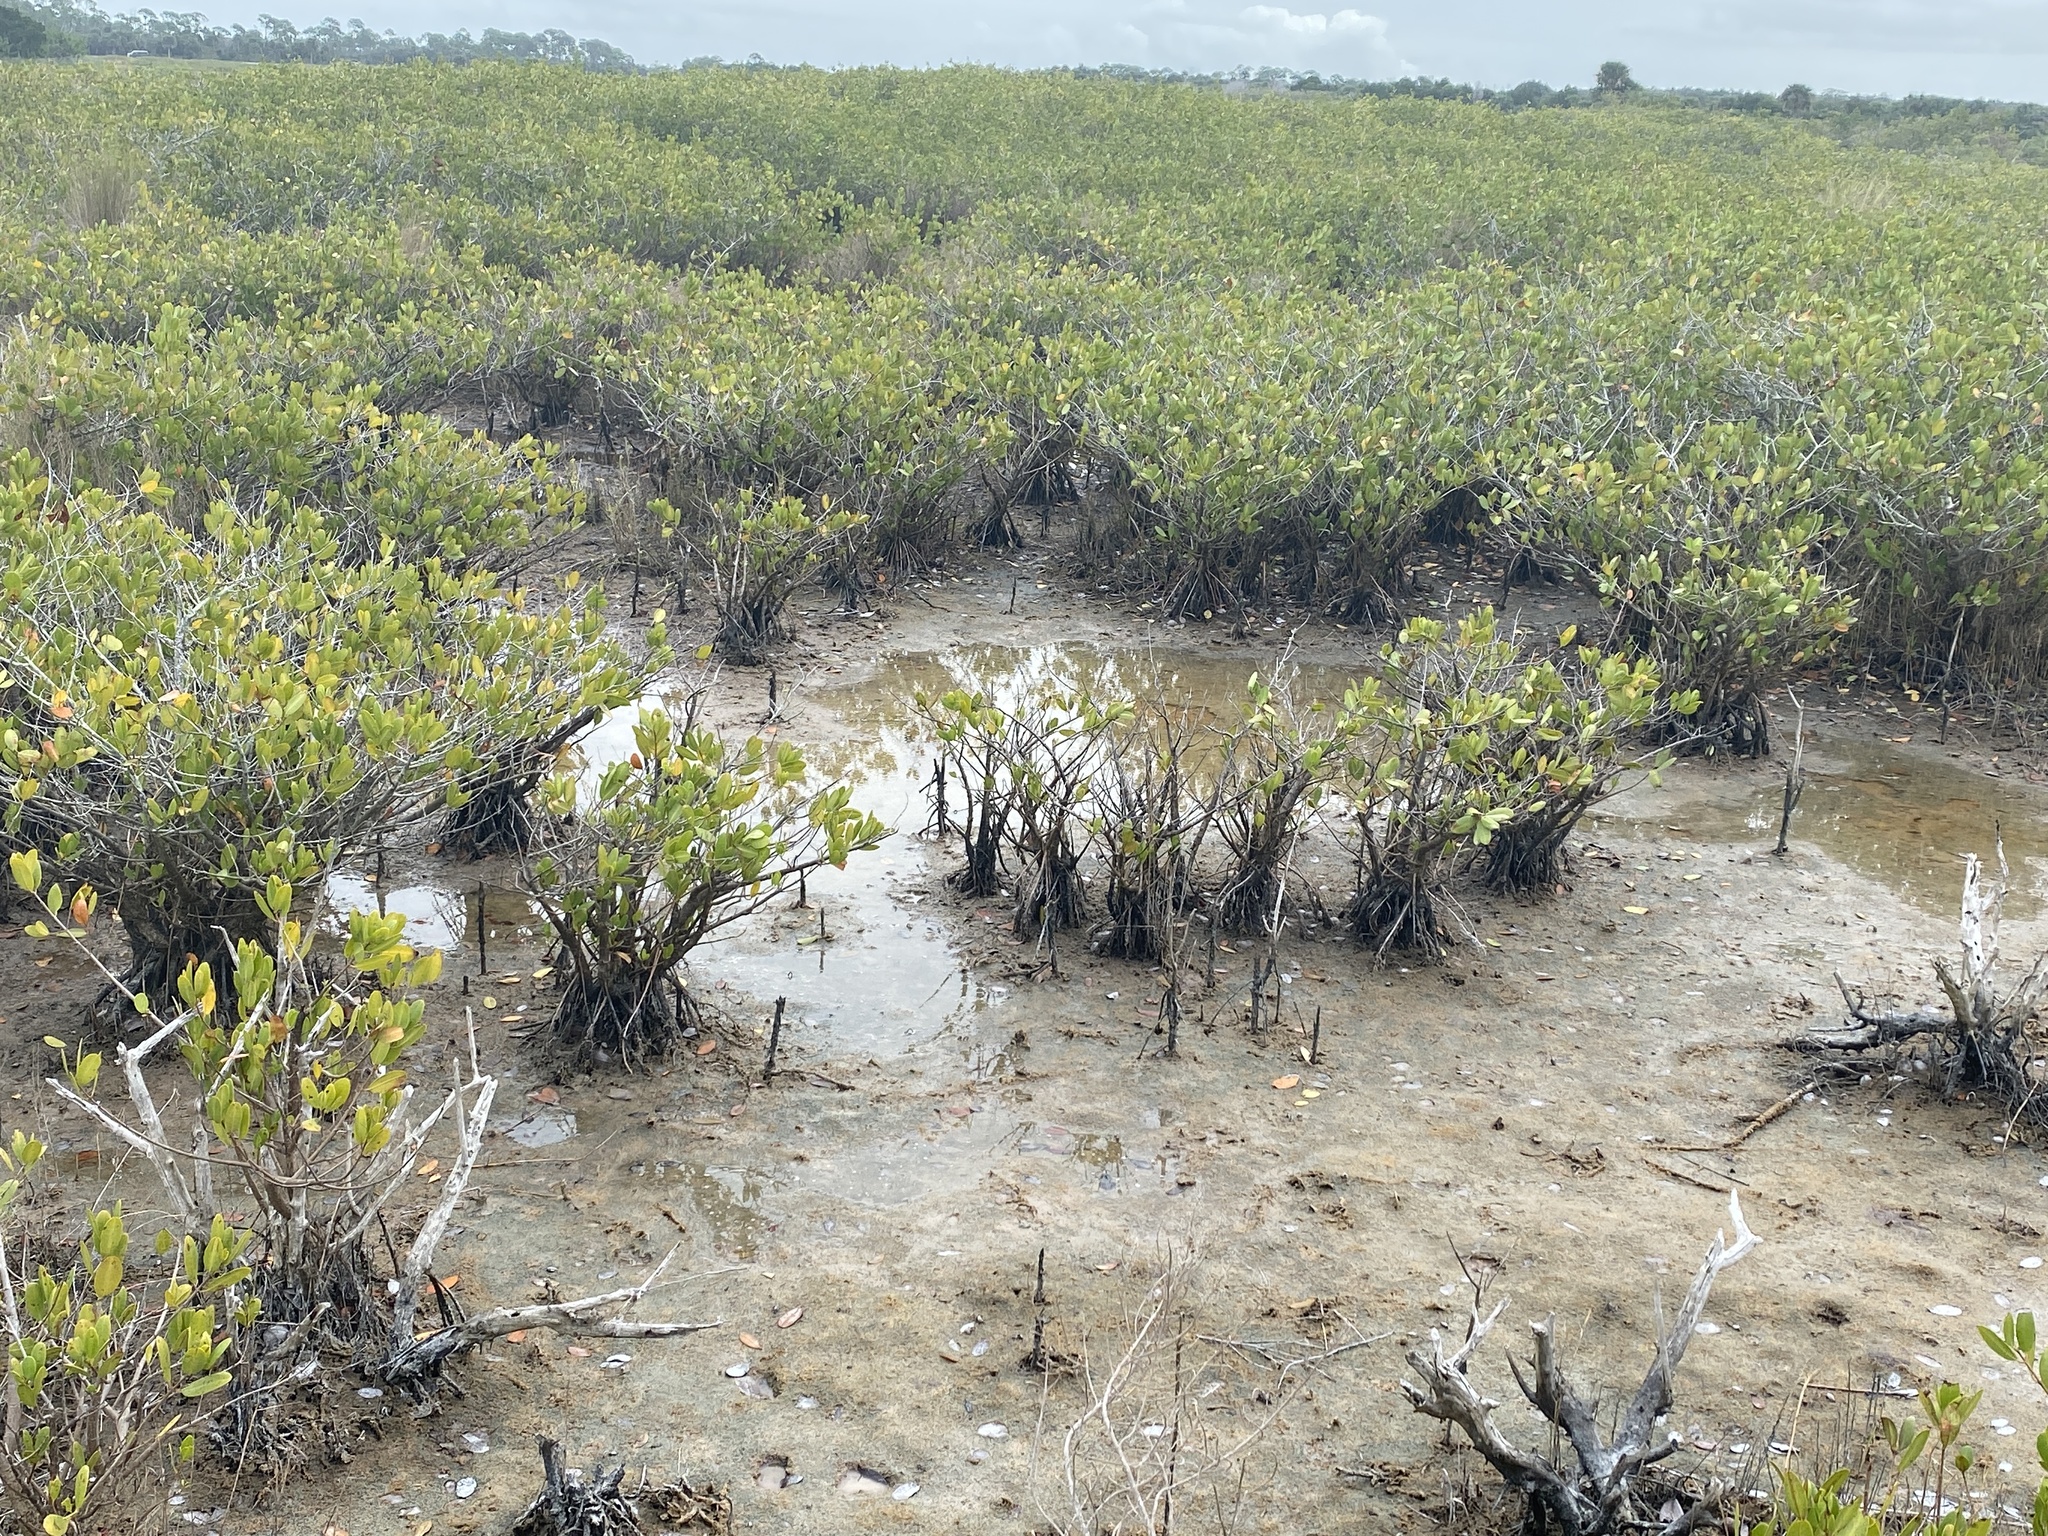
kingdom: Plantae
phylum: Tracheophyta
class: Magnoliopsida
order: Lamiales
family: Acanthaceae
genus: Avicennia
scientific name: Avicennia germinans
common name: Black mangrove
